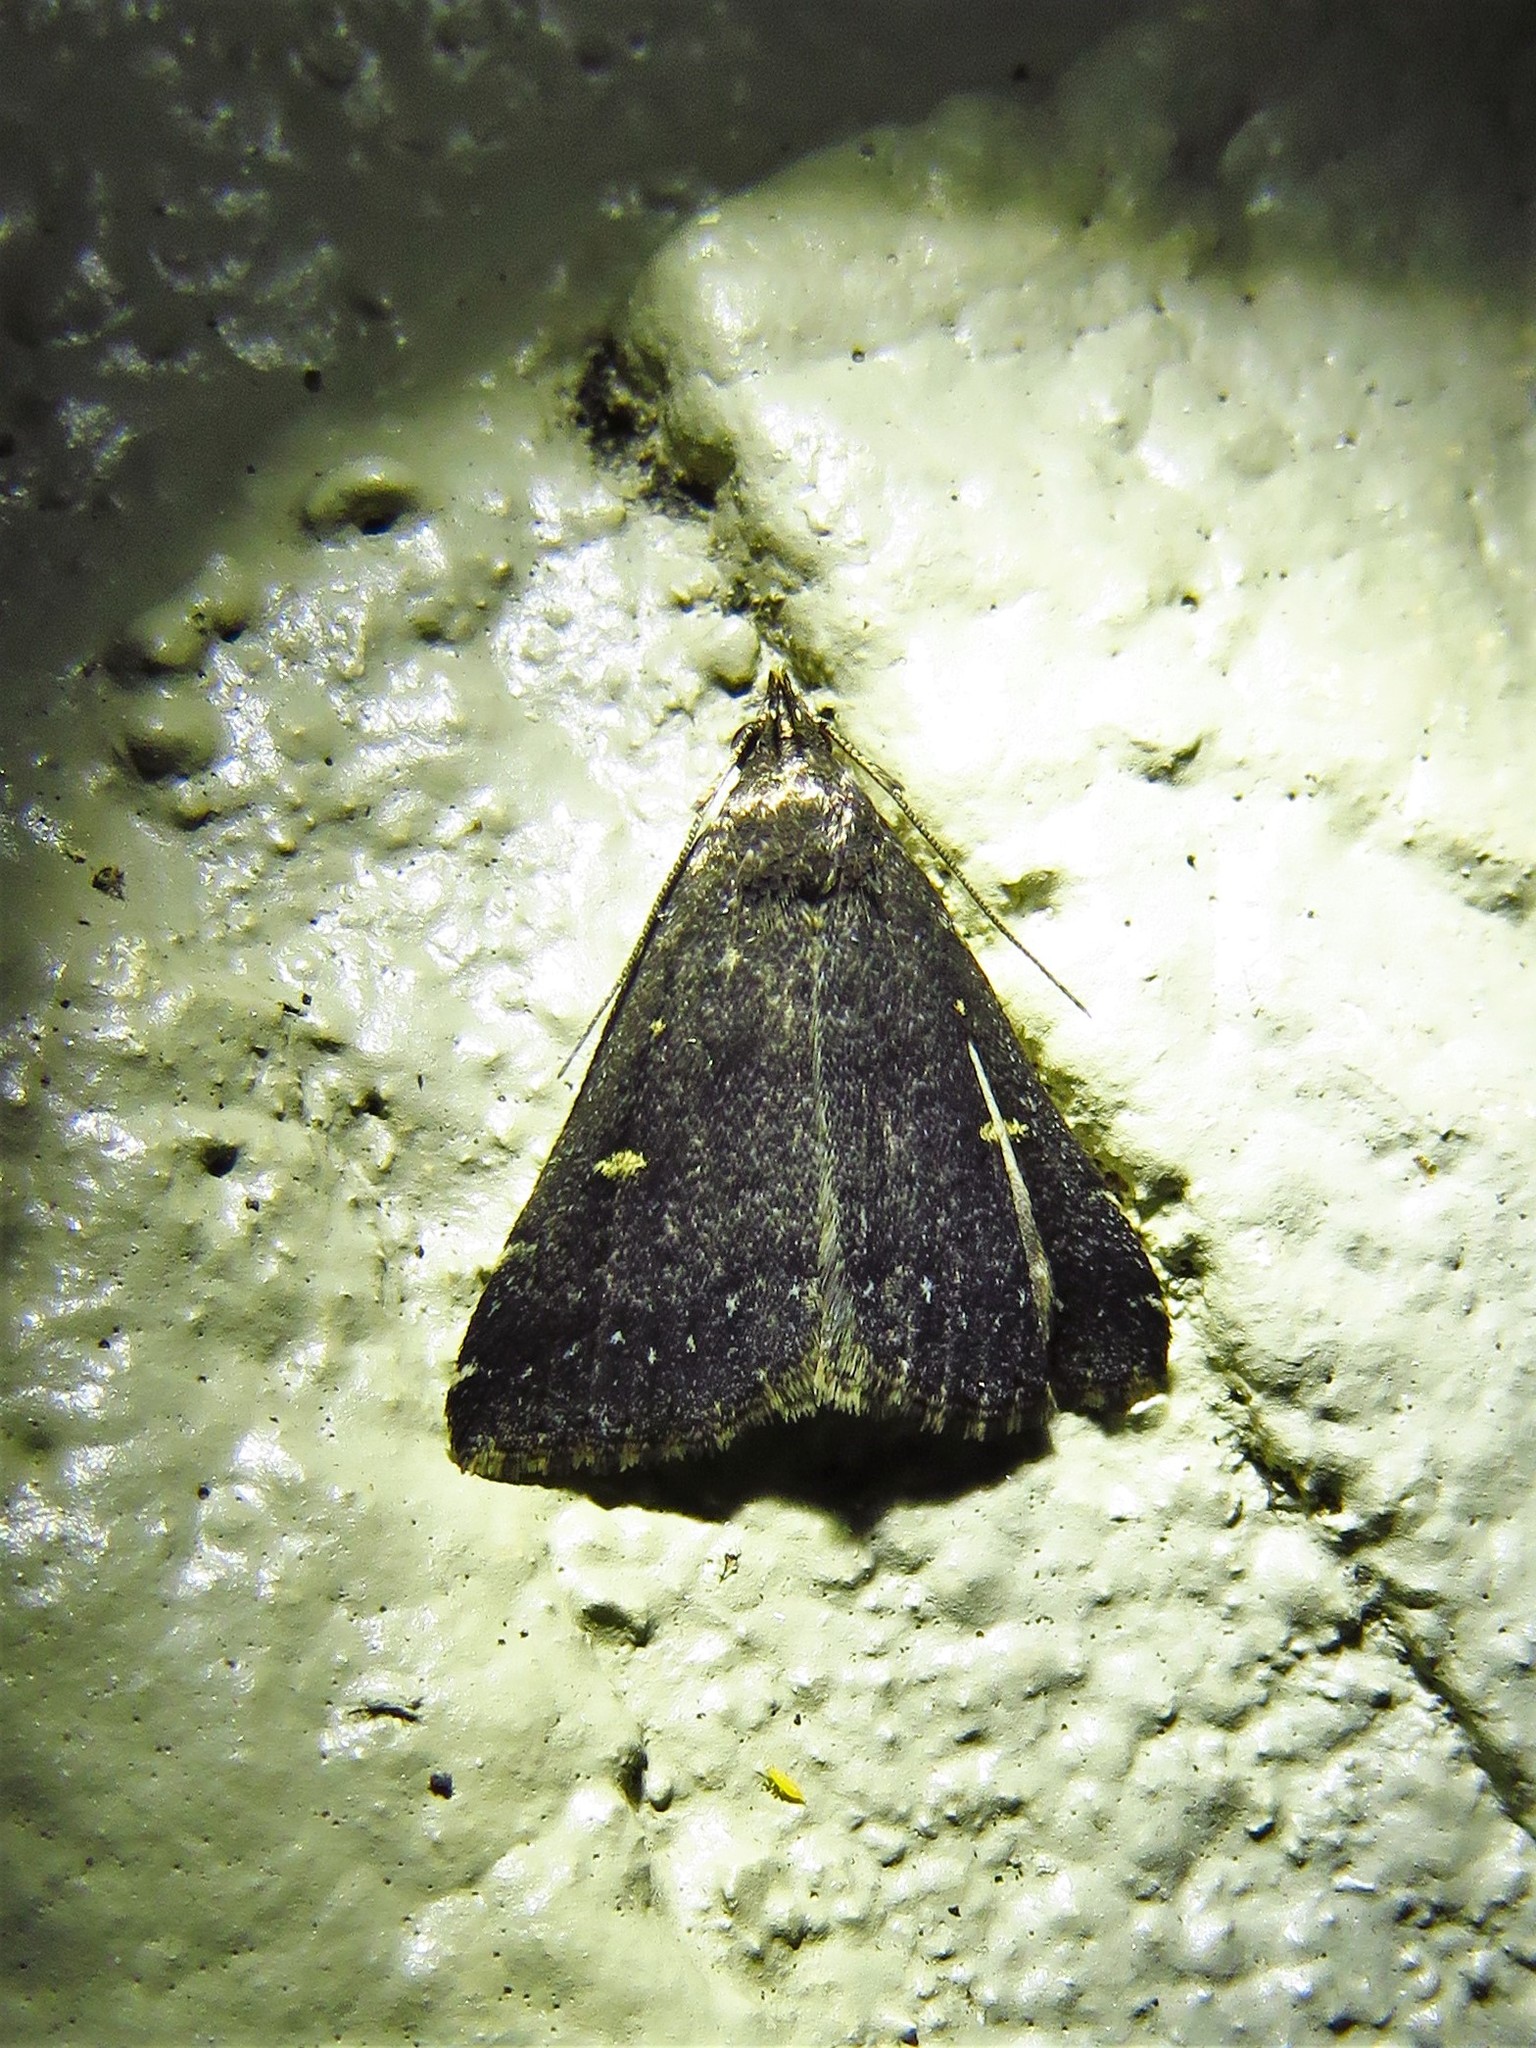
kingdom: Animalia
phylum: Arthropoda
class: Insecta
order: Lepidoptera
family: Erebidae
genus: Tetanolita
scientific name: Tetanolita mynesalis
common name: Smoky tetanolita moth
